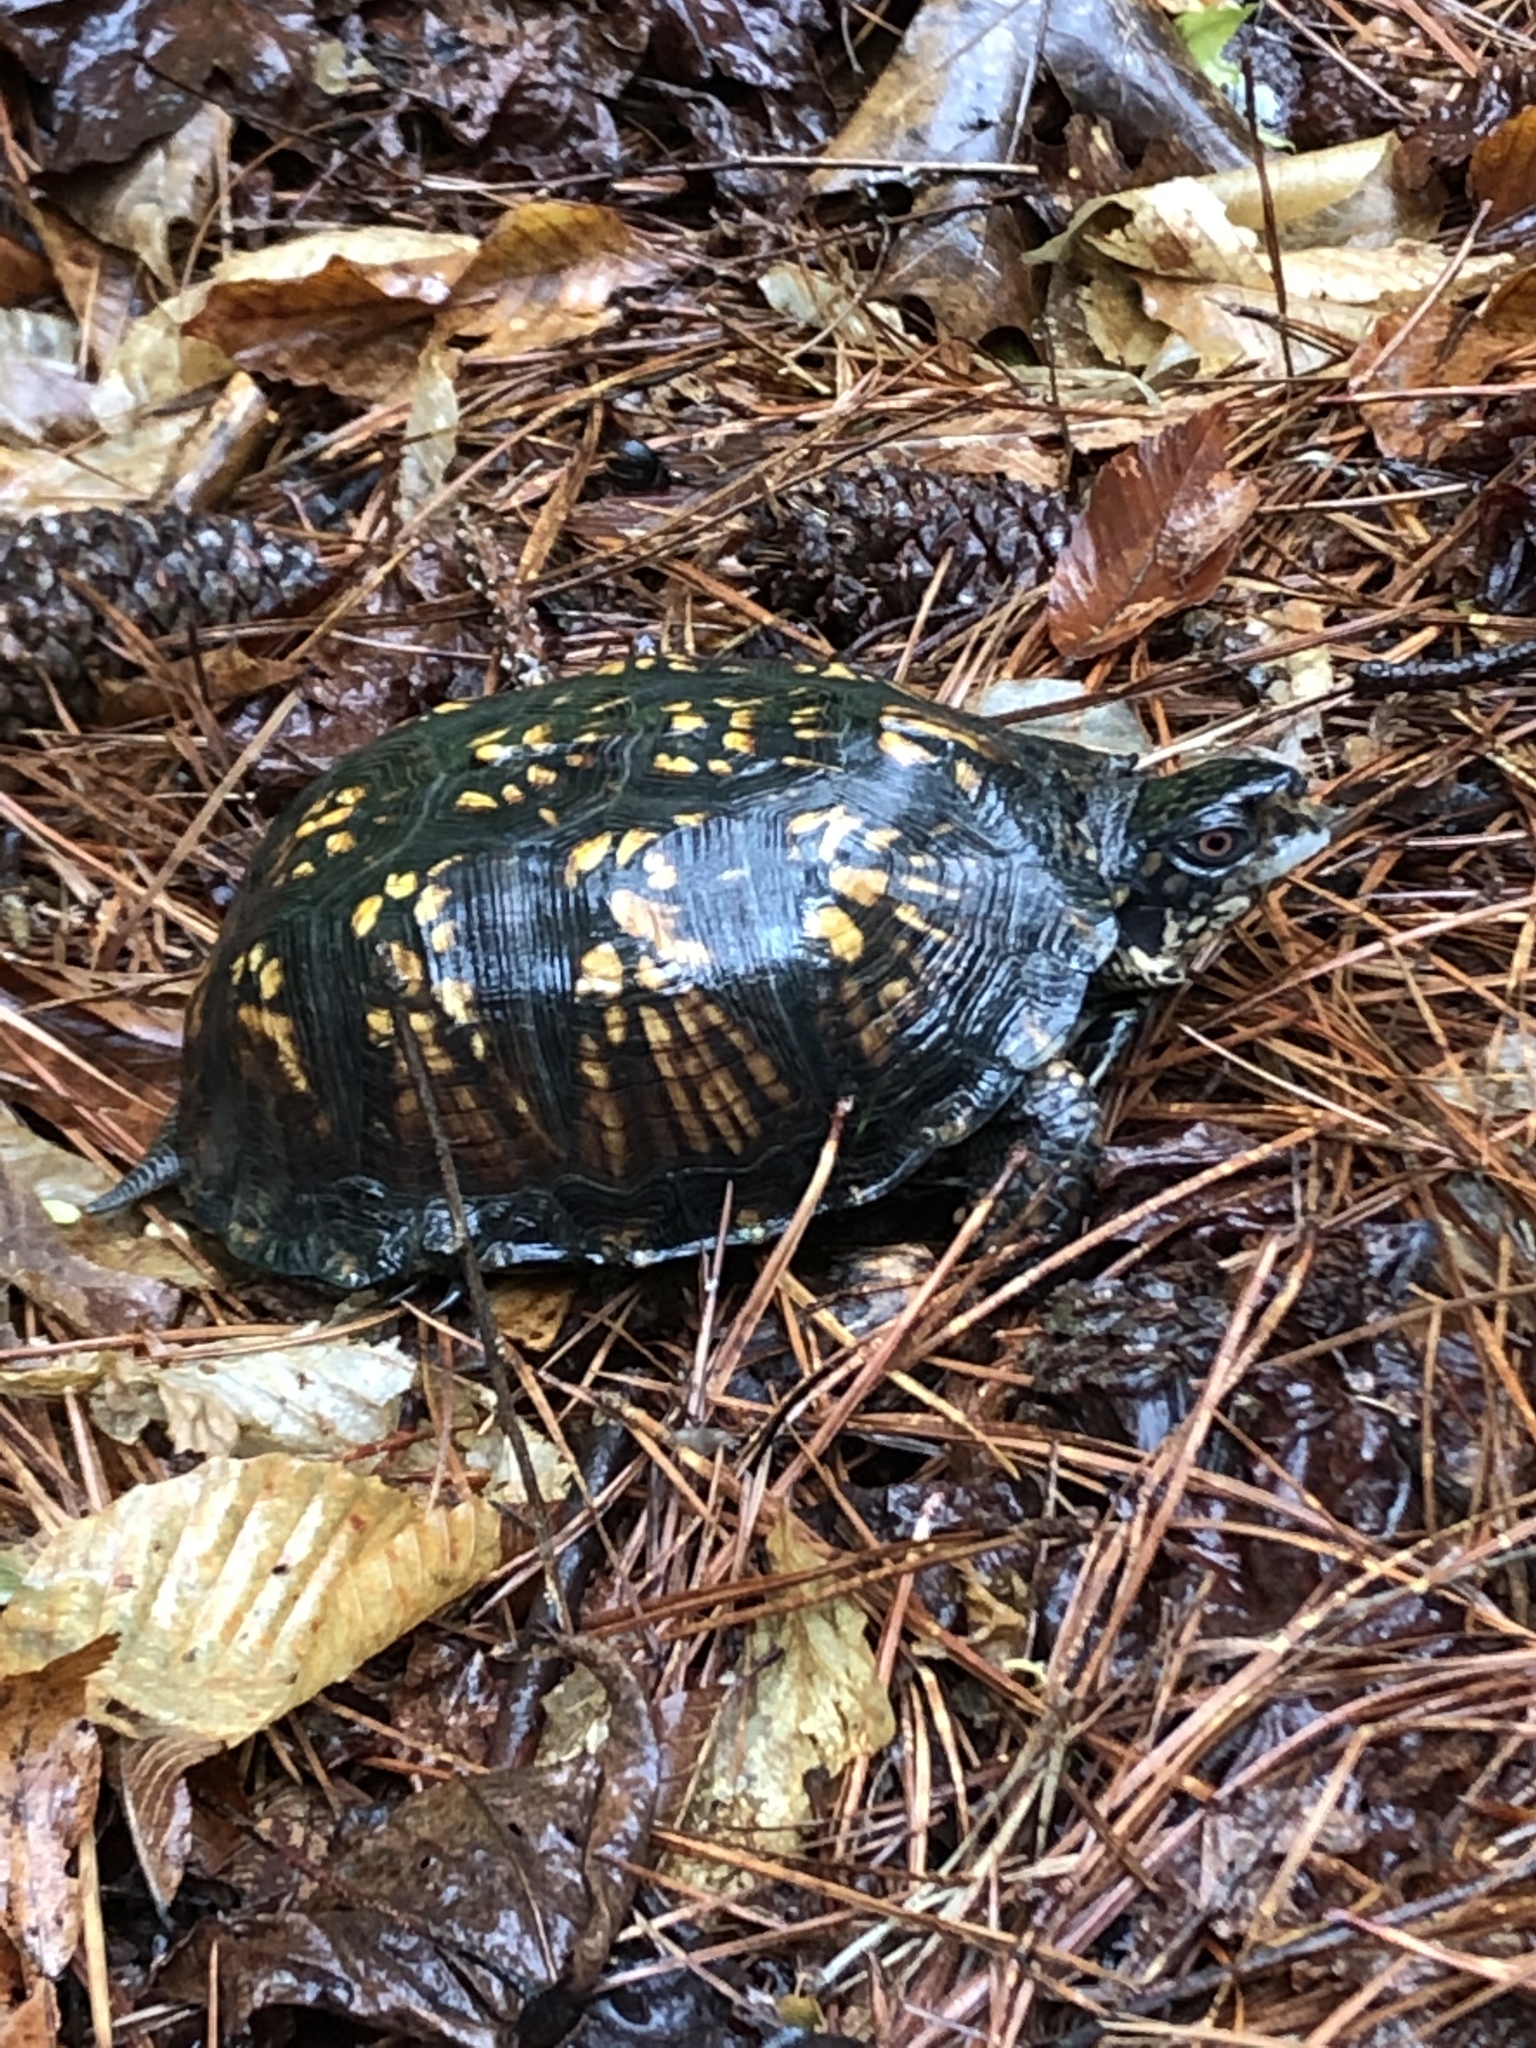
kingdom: Animalia
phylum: Chordata
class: Testudines
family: Emydidae
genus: Terrapene
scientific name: Terrapene carolina
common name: Common box turtle
